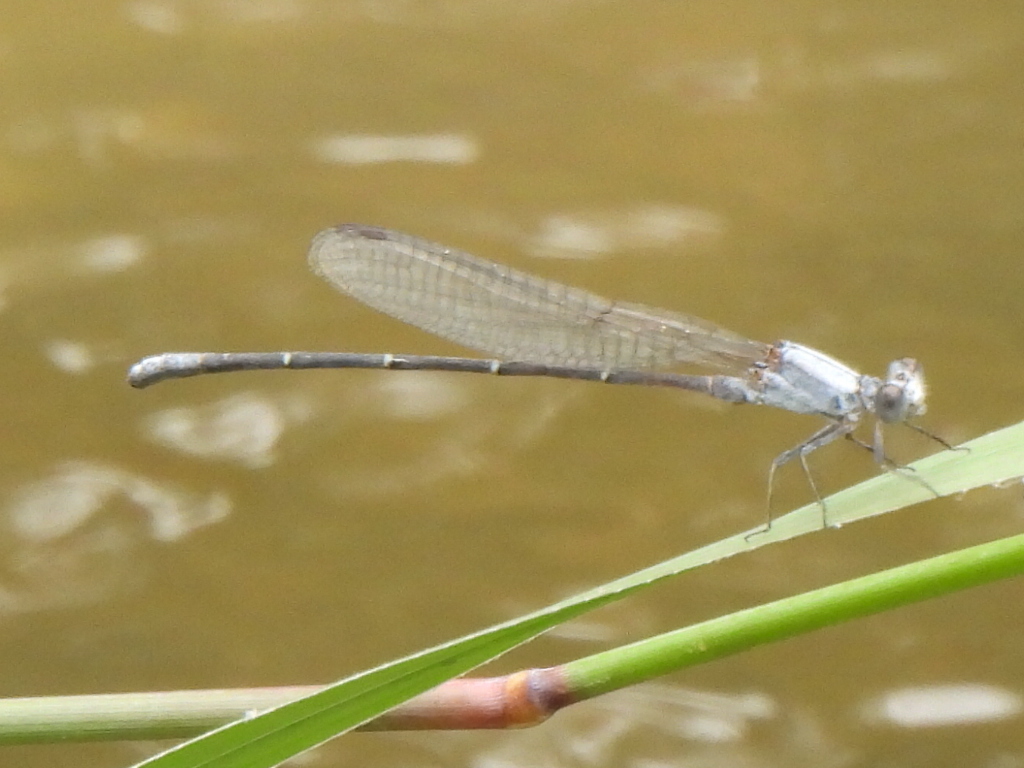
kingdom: Animalia
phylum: Arthropoda
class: Insecta
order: Odonata
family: Coenagrionidae
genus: Argia
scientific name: Argia moesta
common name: Powdered dancer
